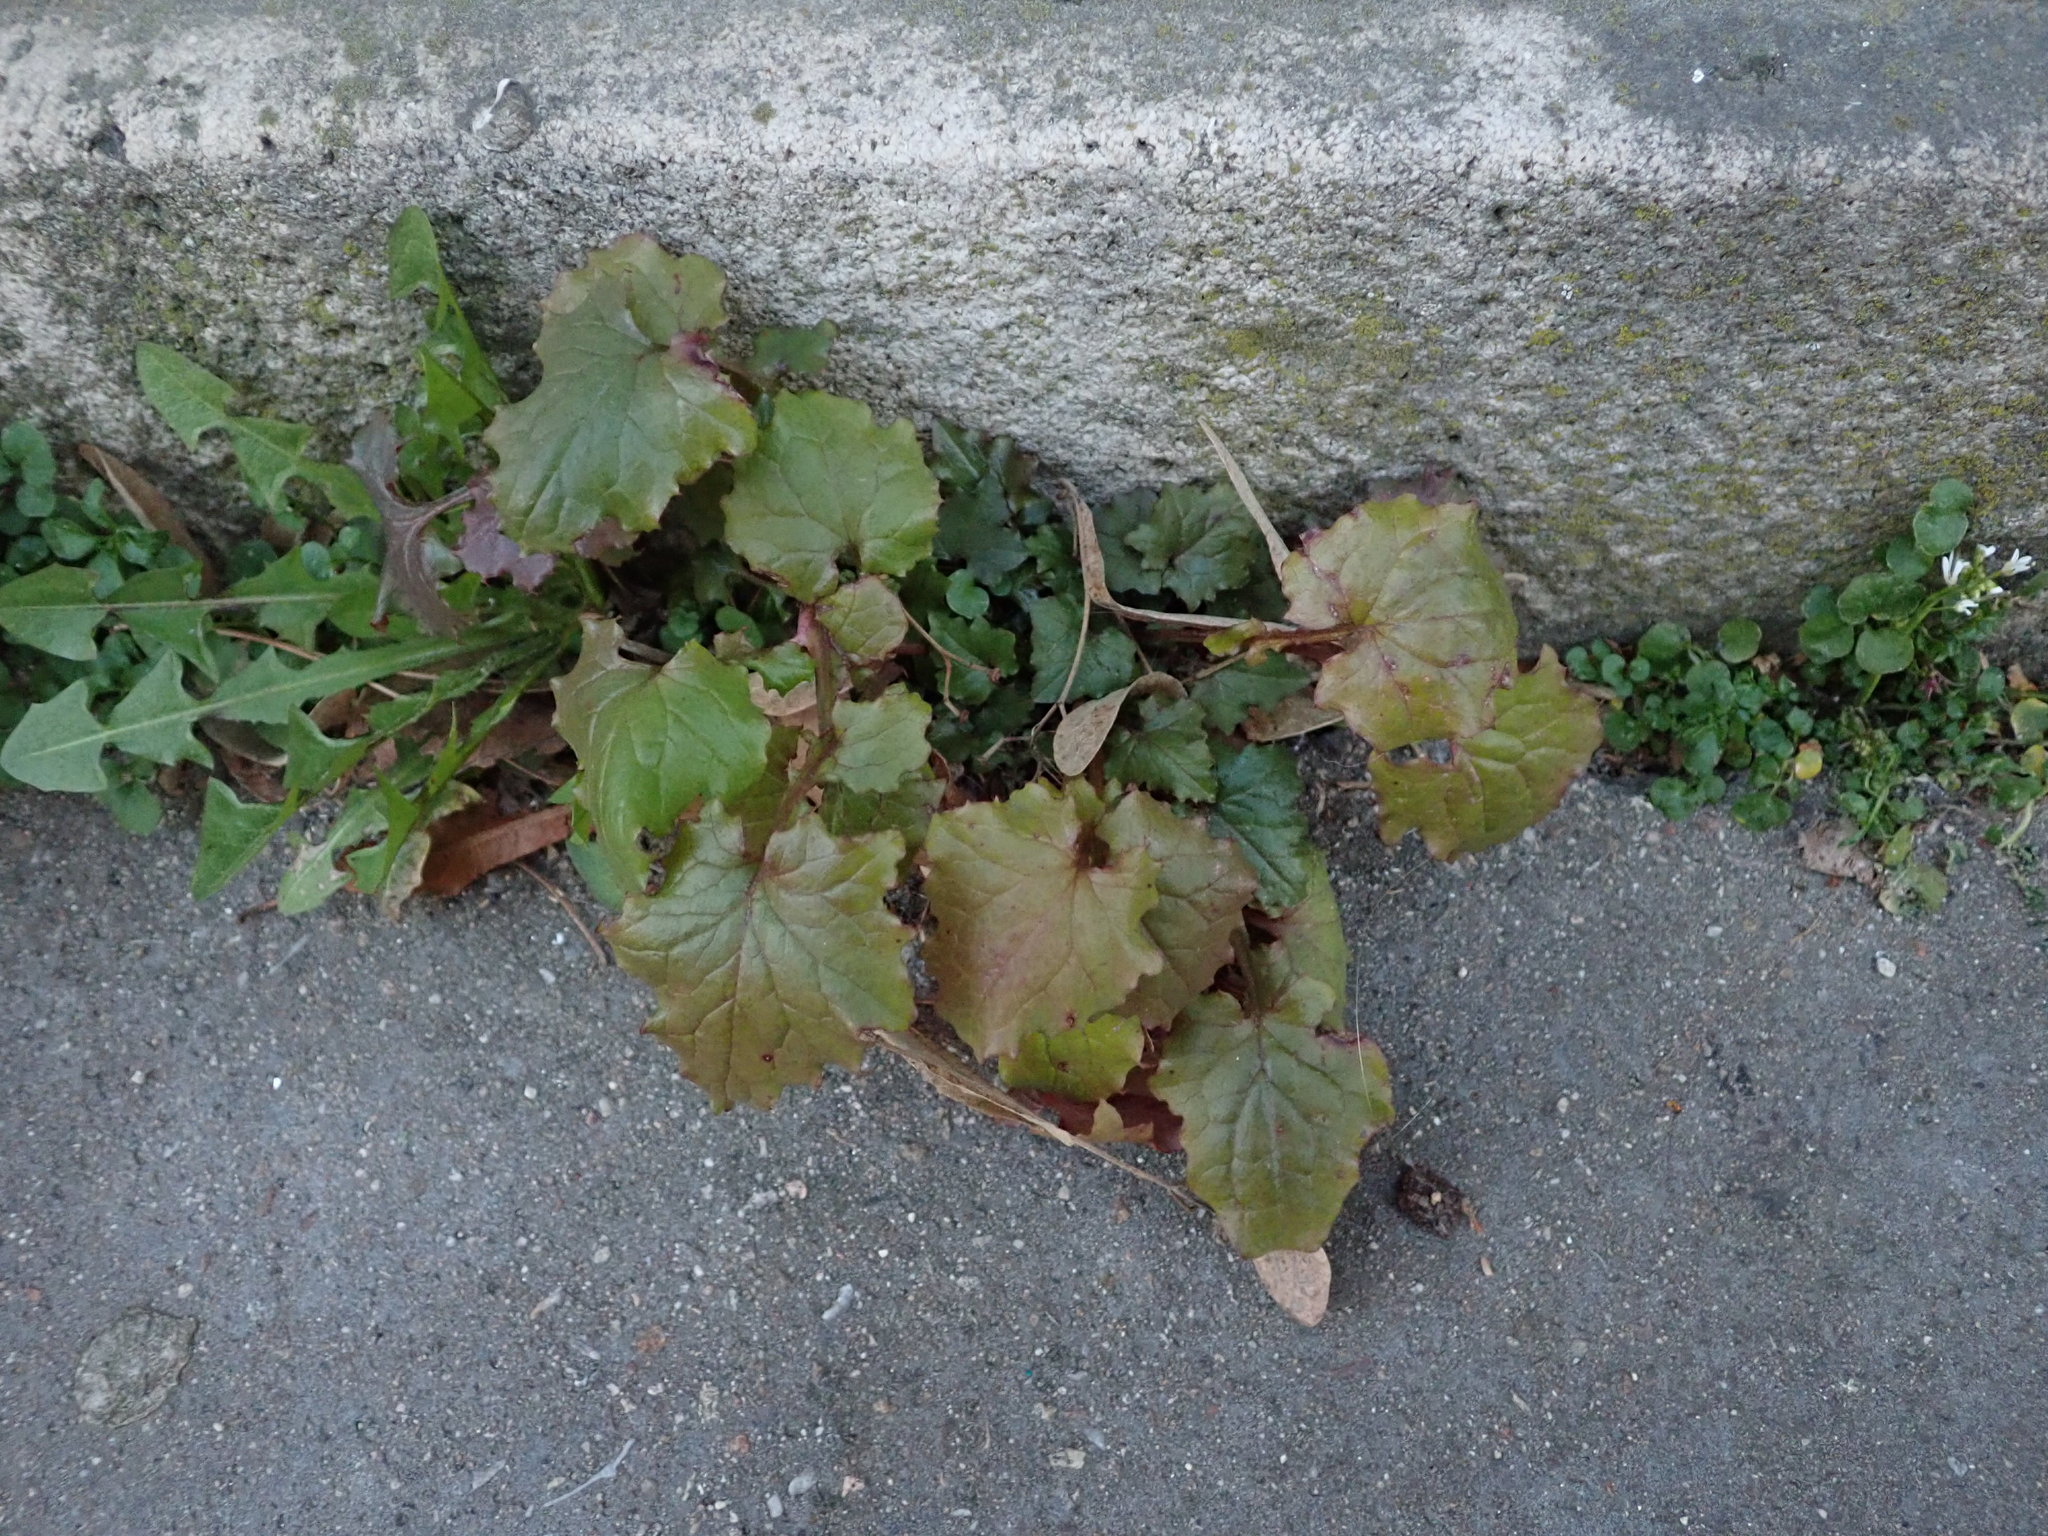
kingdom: Plantae
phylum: Tracheophyta
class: Magnoliopsida
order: Asterales
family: Asteraceae
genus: Mycelis
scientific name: Mycelis muralis
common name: Wall lettuce
